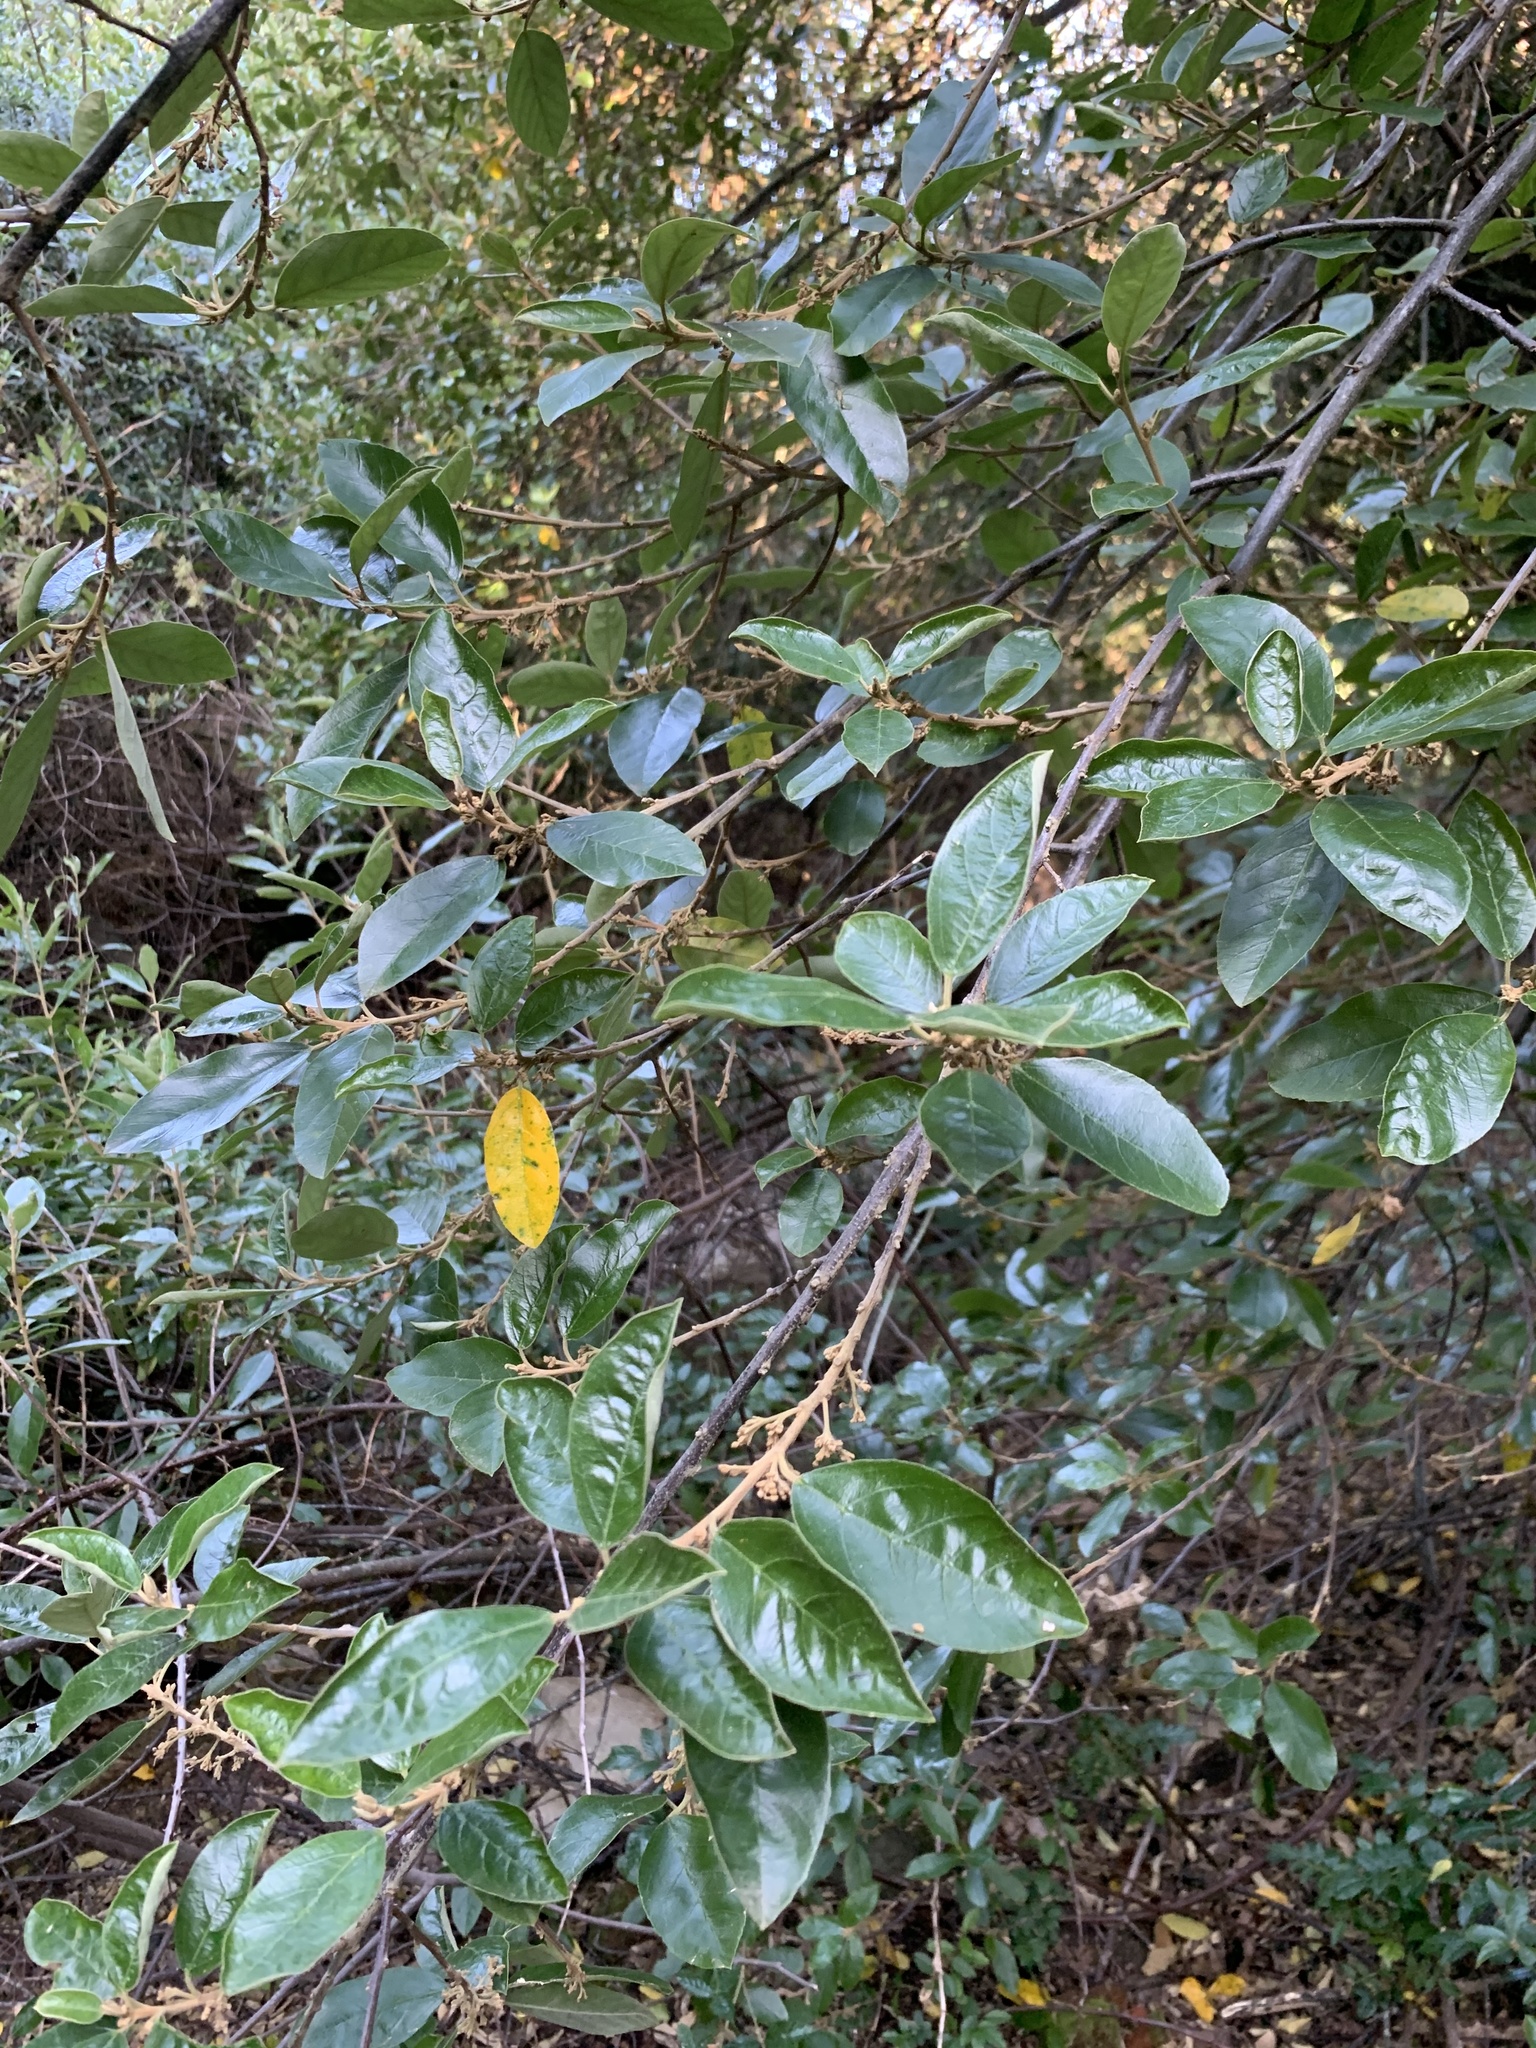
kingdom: Plantae
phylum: Tracheophyta
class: Magnoliopsida
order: Malpighiales
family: Achariaceae
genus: Kiggelaria
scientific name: Kiggelaria africana
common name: Wild peach
